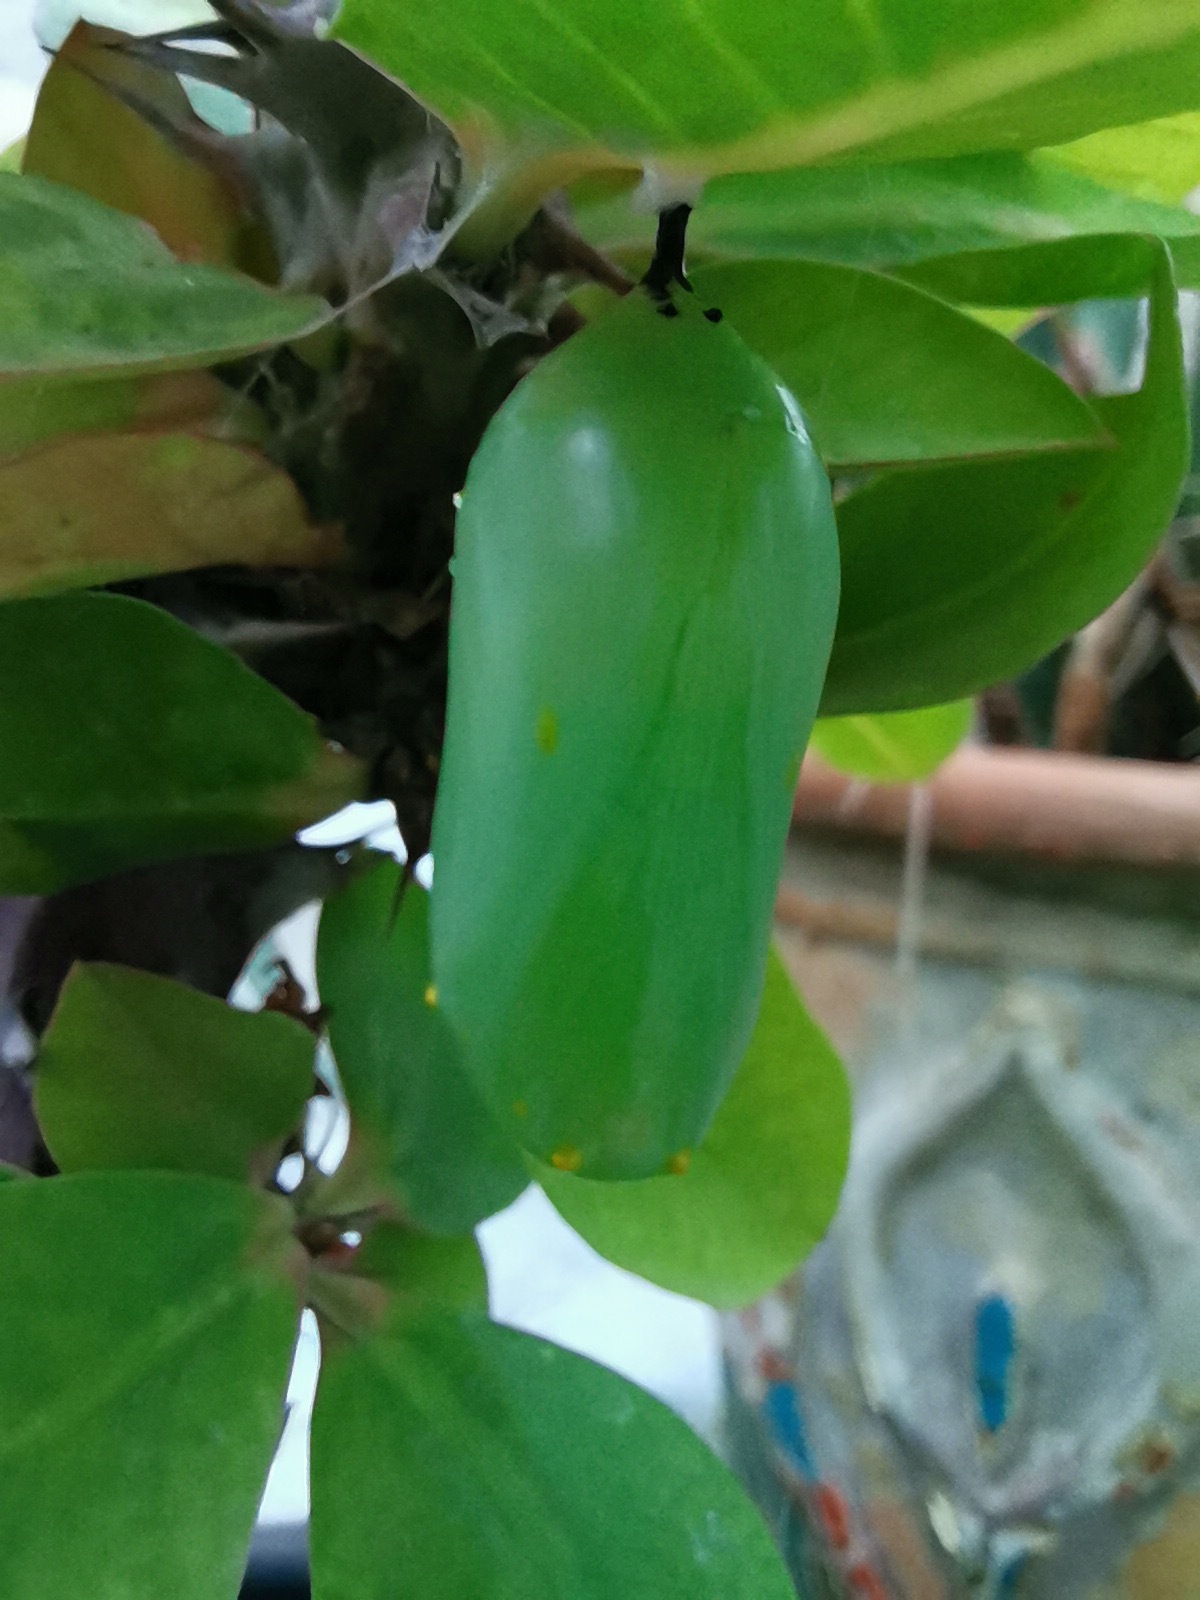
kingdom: Animalia
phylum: Arthropoda
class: Insecta
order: Lepidoptera
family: Nymphalidae
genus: Danaus
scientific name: Danaus plexippus
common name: Monarch
